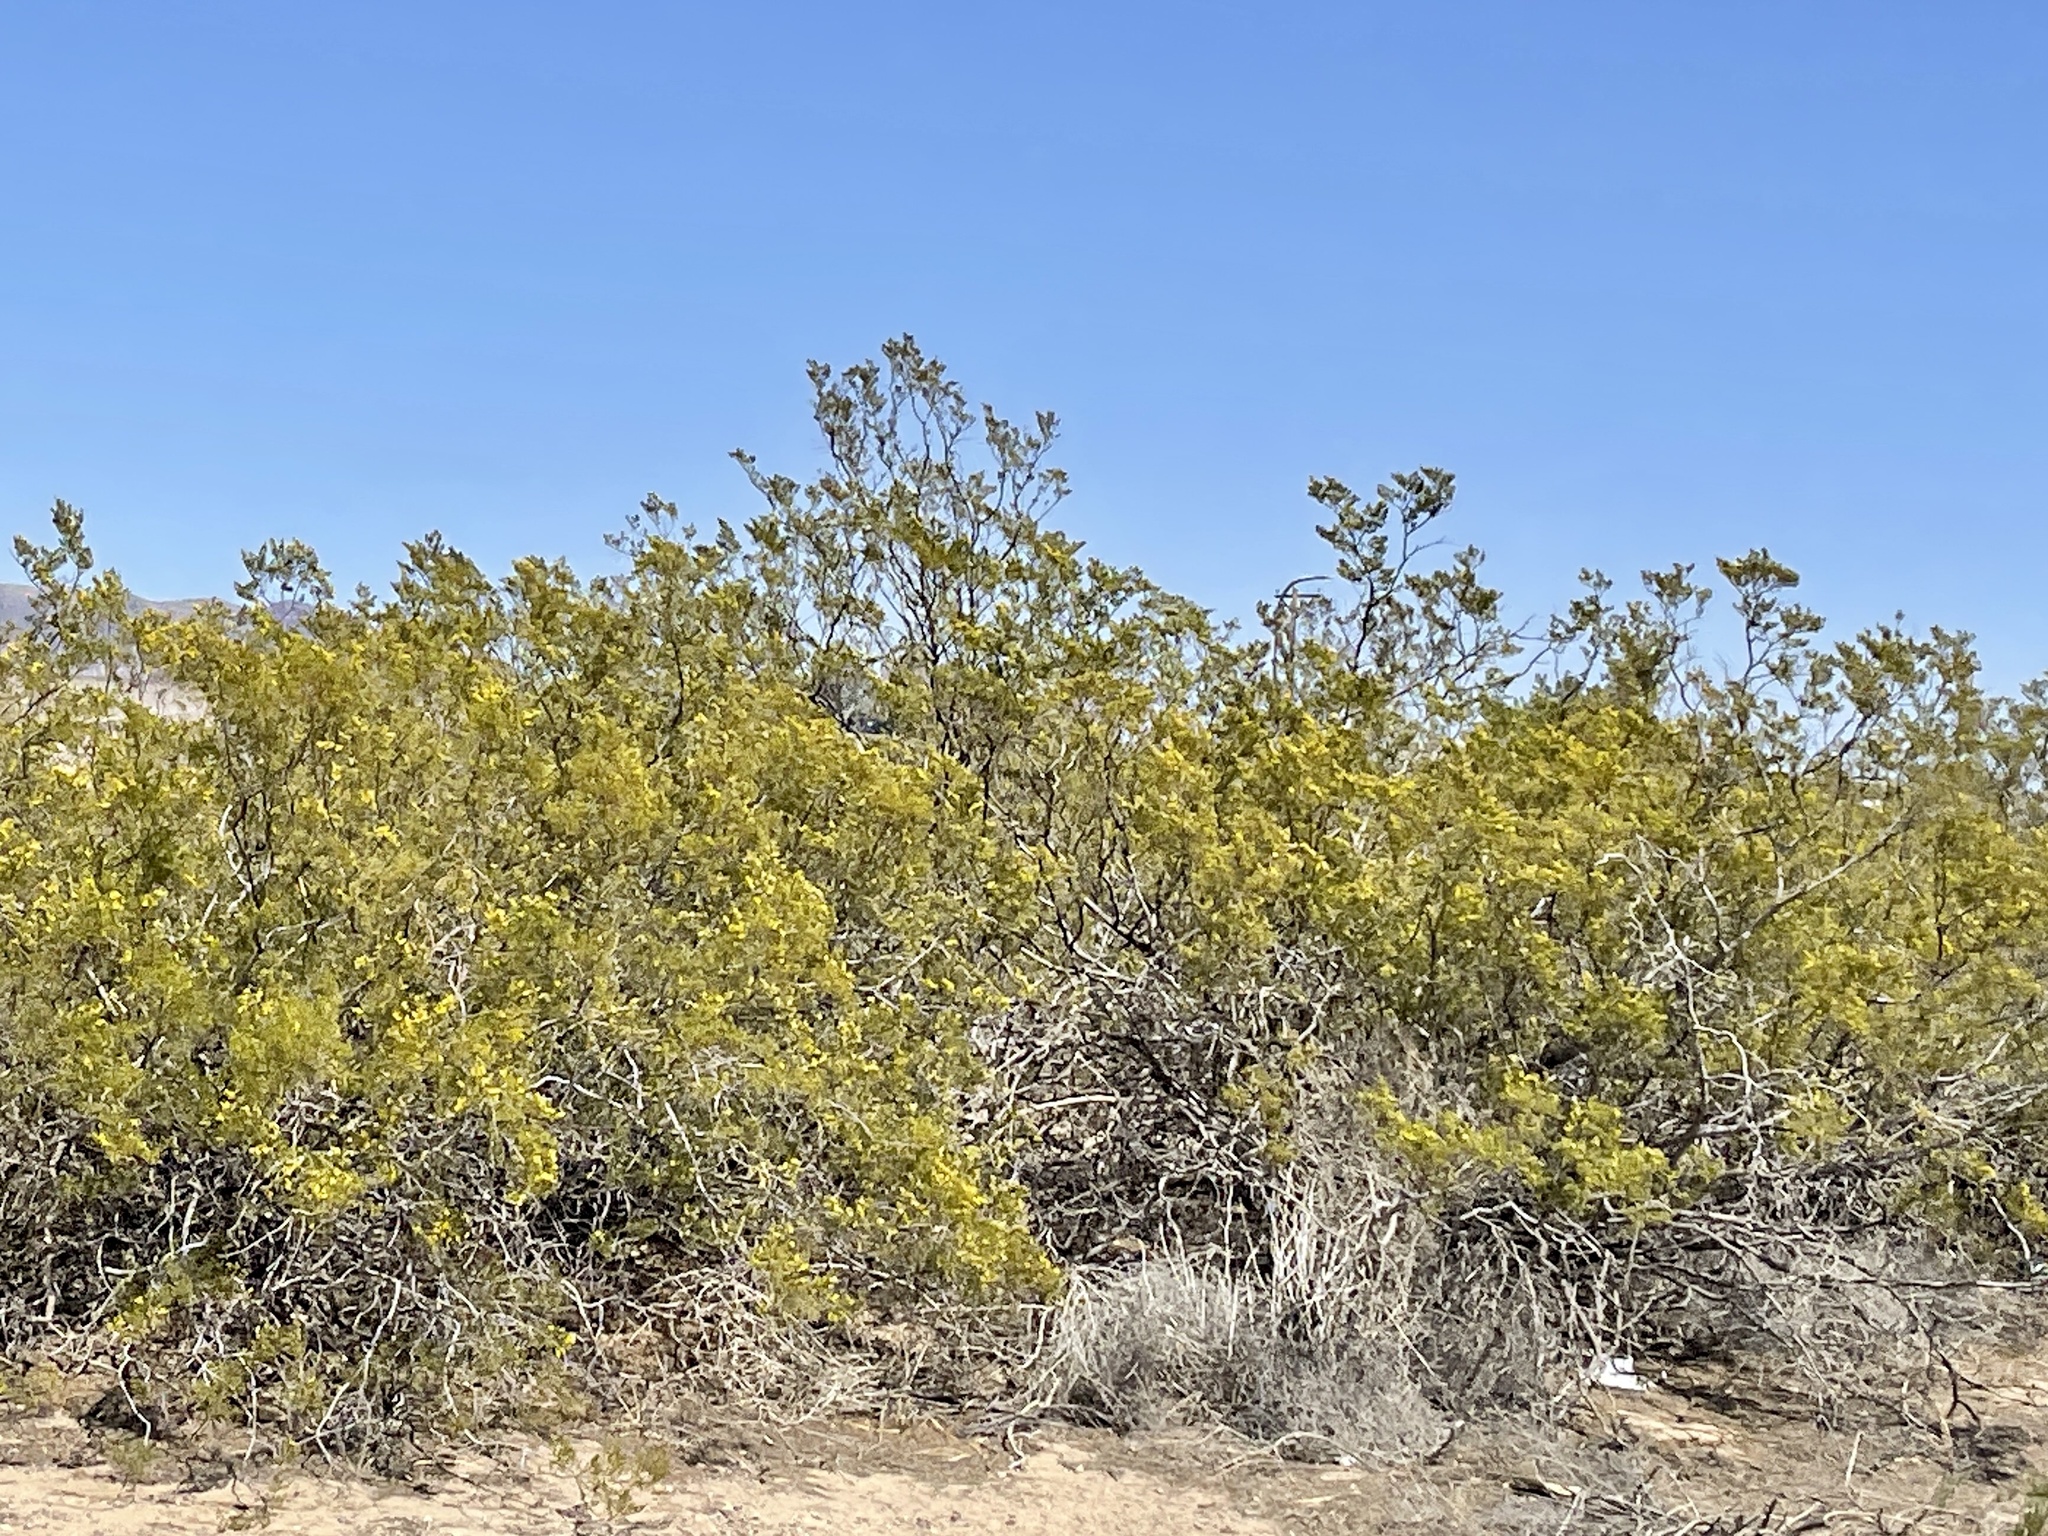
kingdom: Plantae
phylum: Tracheophyta
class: Magnoliopsida
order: Zygophyllales
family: Zygophyllaceae
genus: Larrea
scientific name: Larrea tridentata
